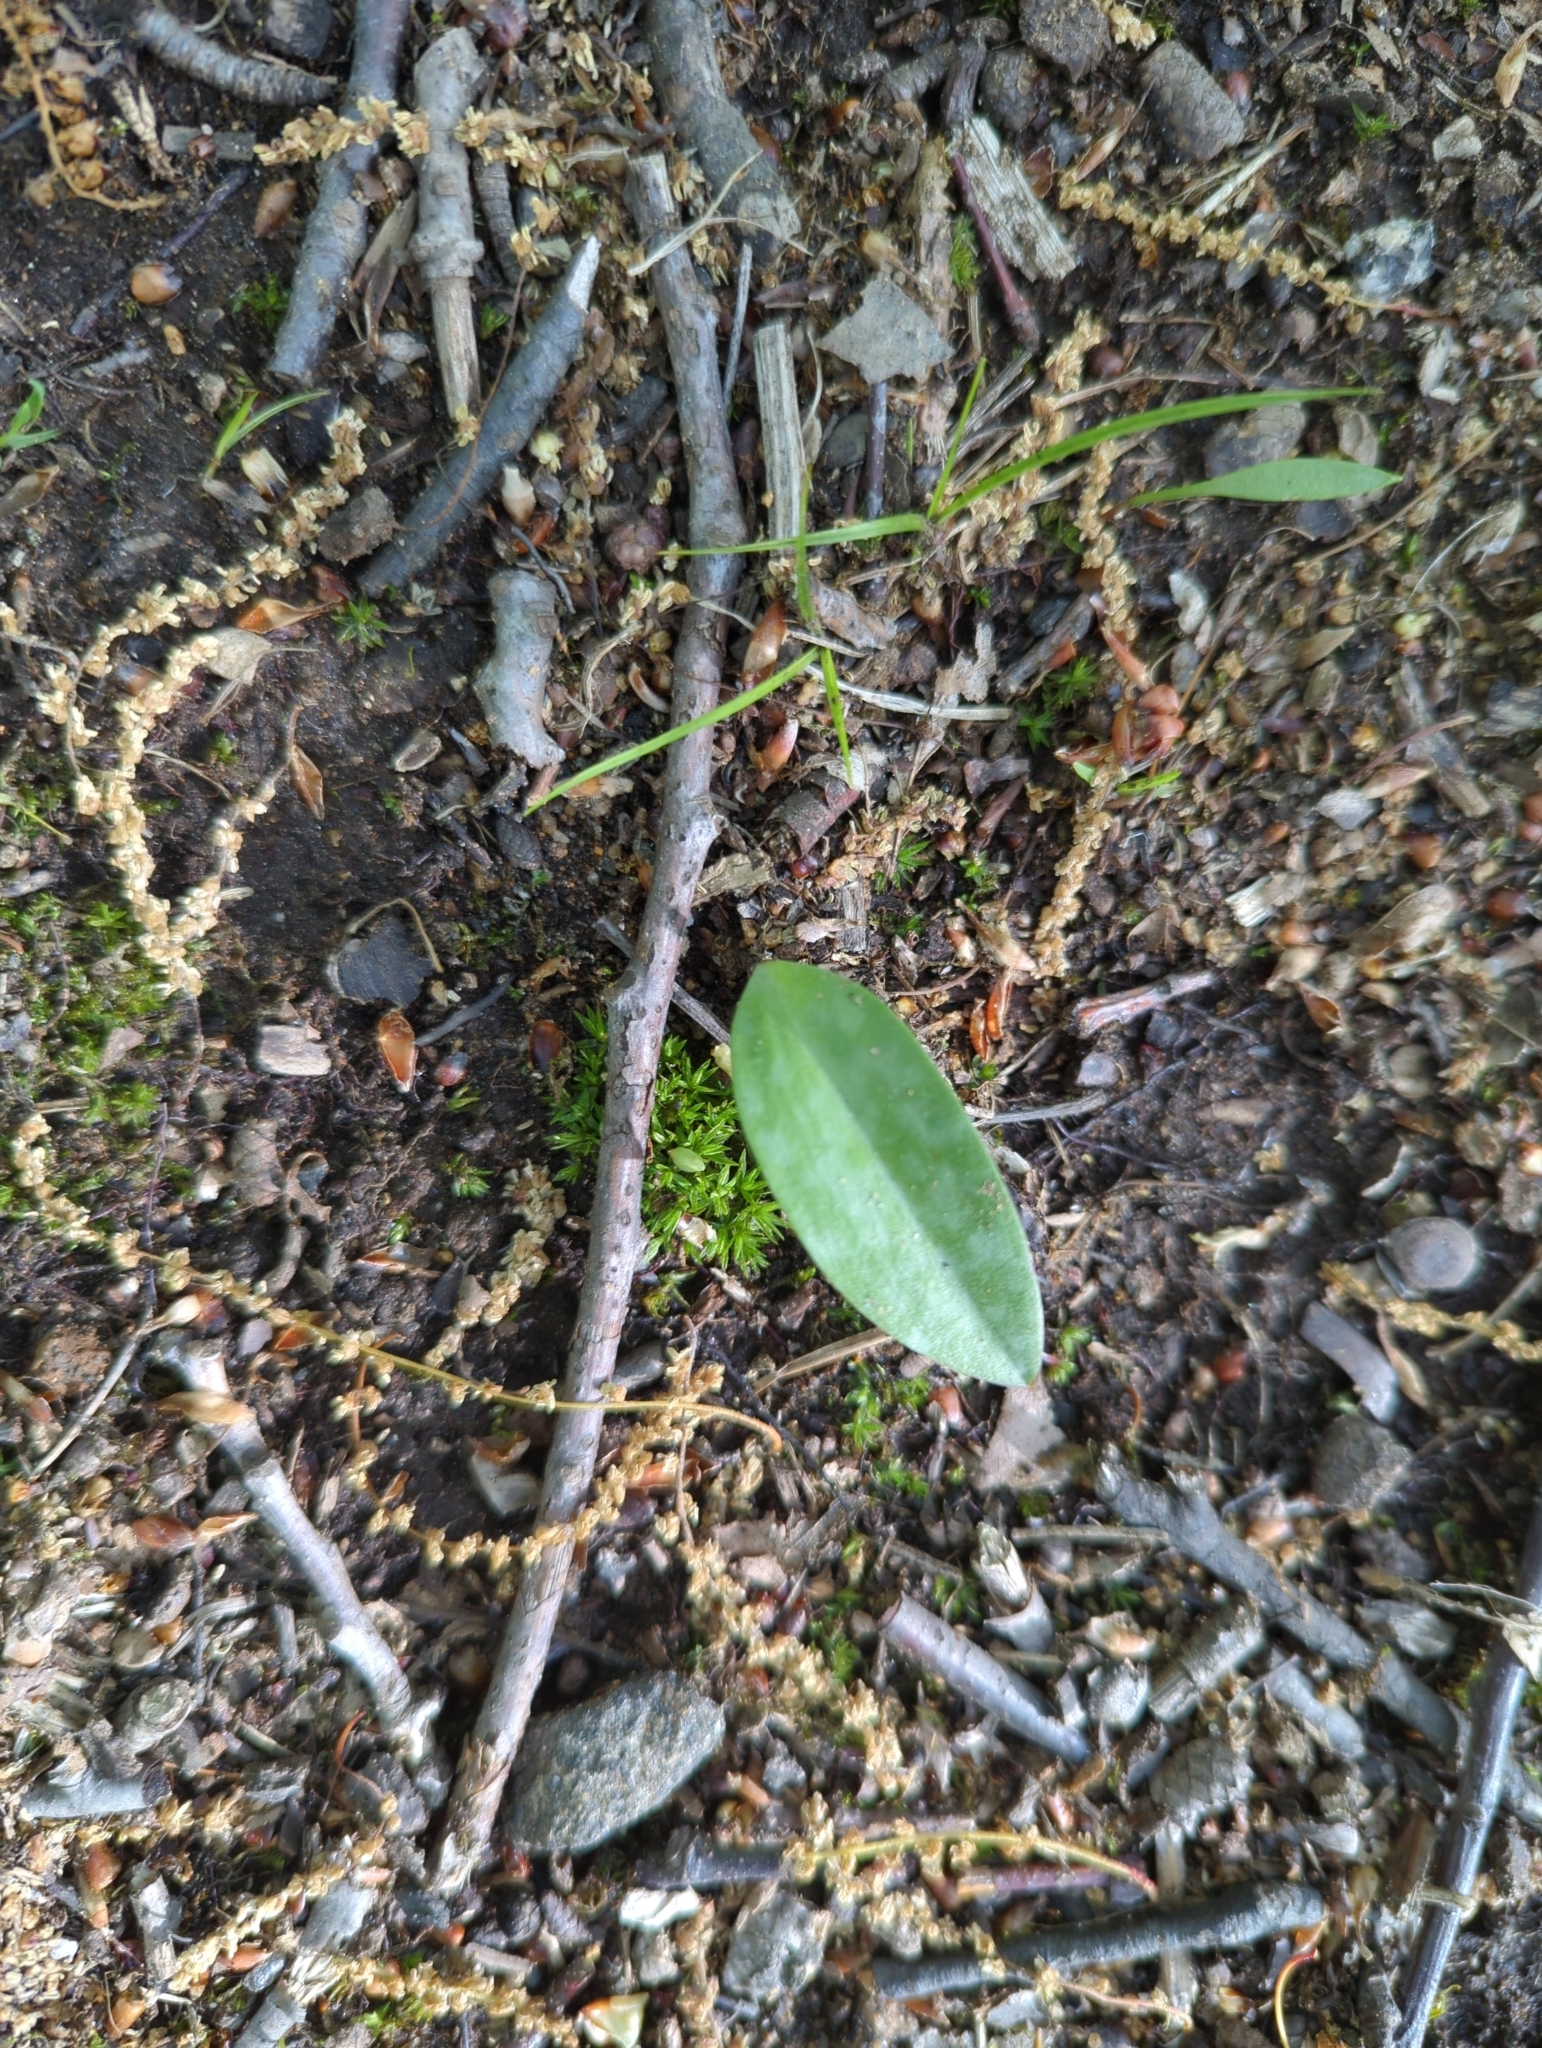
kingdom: Plantae
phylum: Tracheophyta
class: Liliopsida
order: Liliales
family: Liliaceae
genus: Erythronium
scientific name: Erythronium americanum
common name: Yellow adder's-tongue
